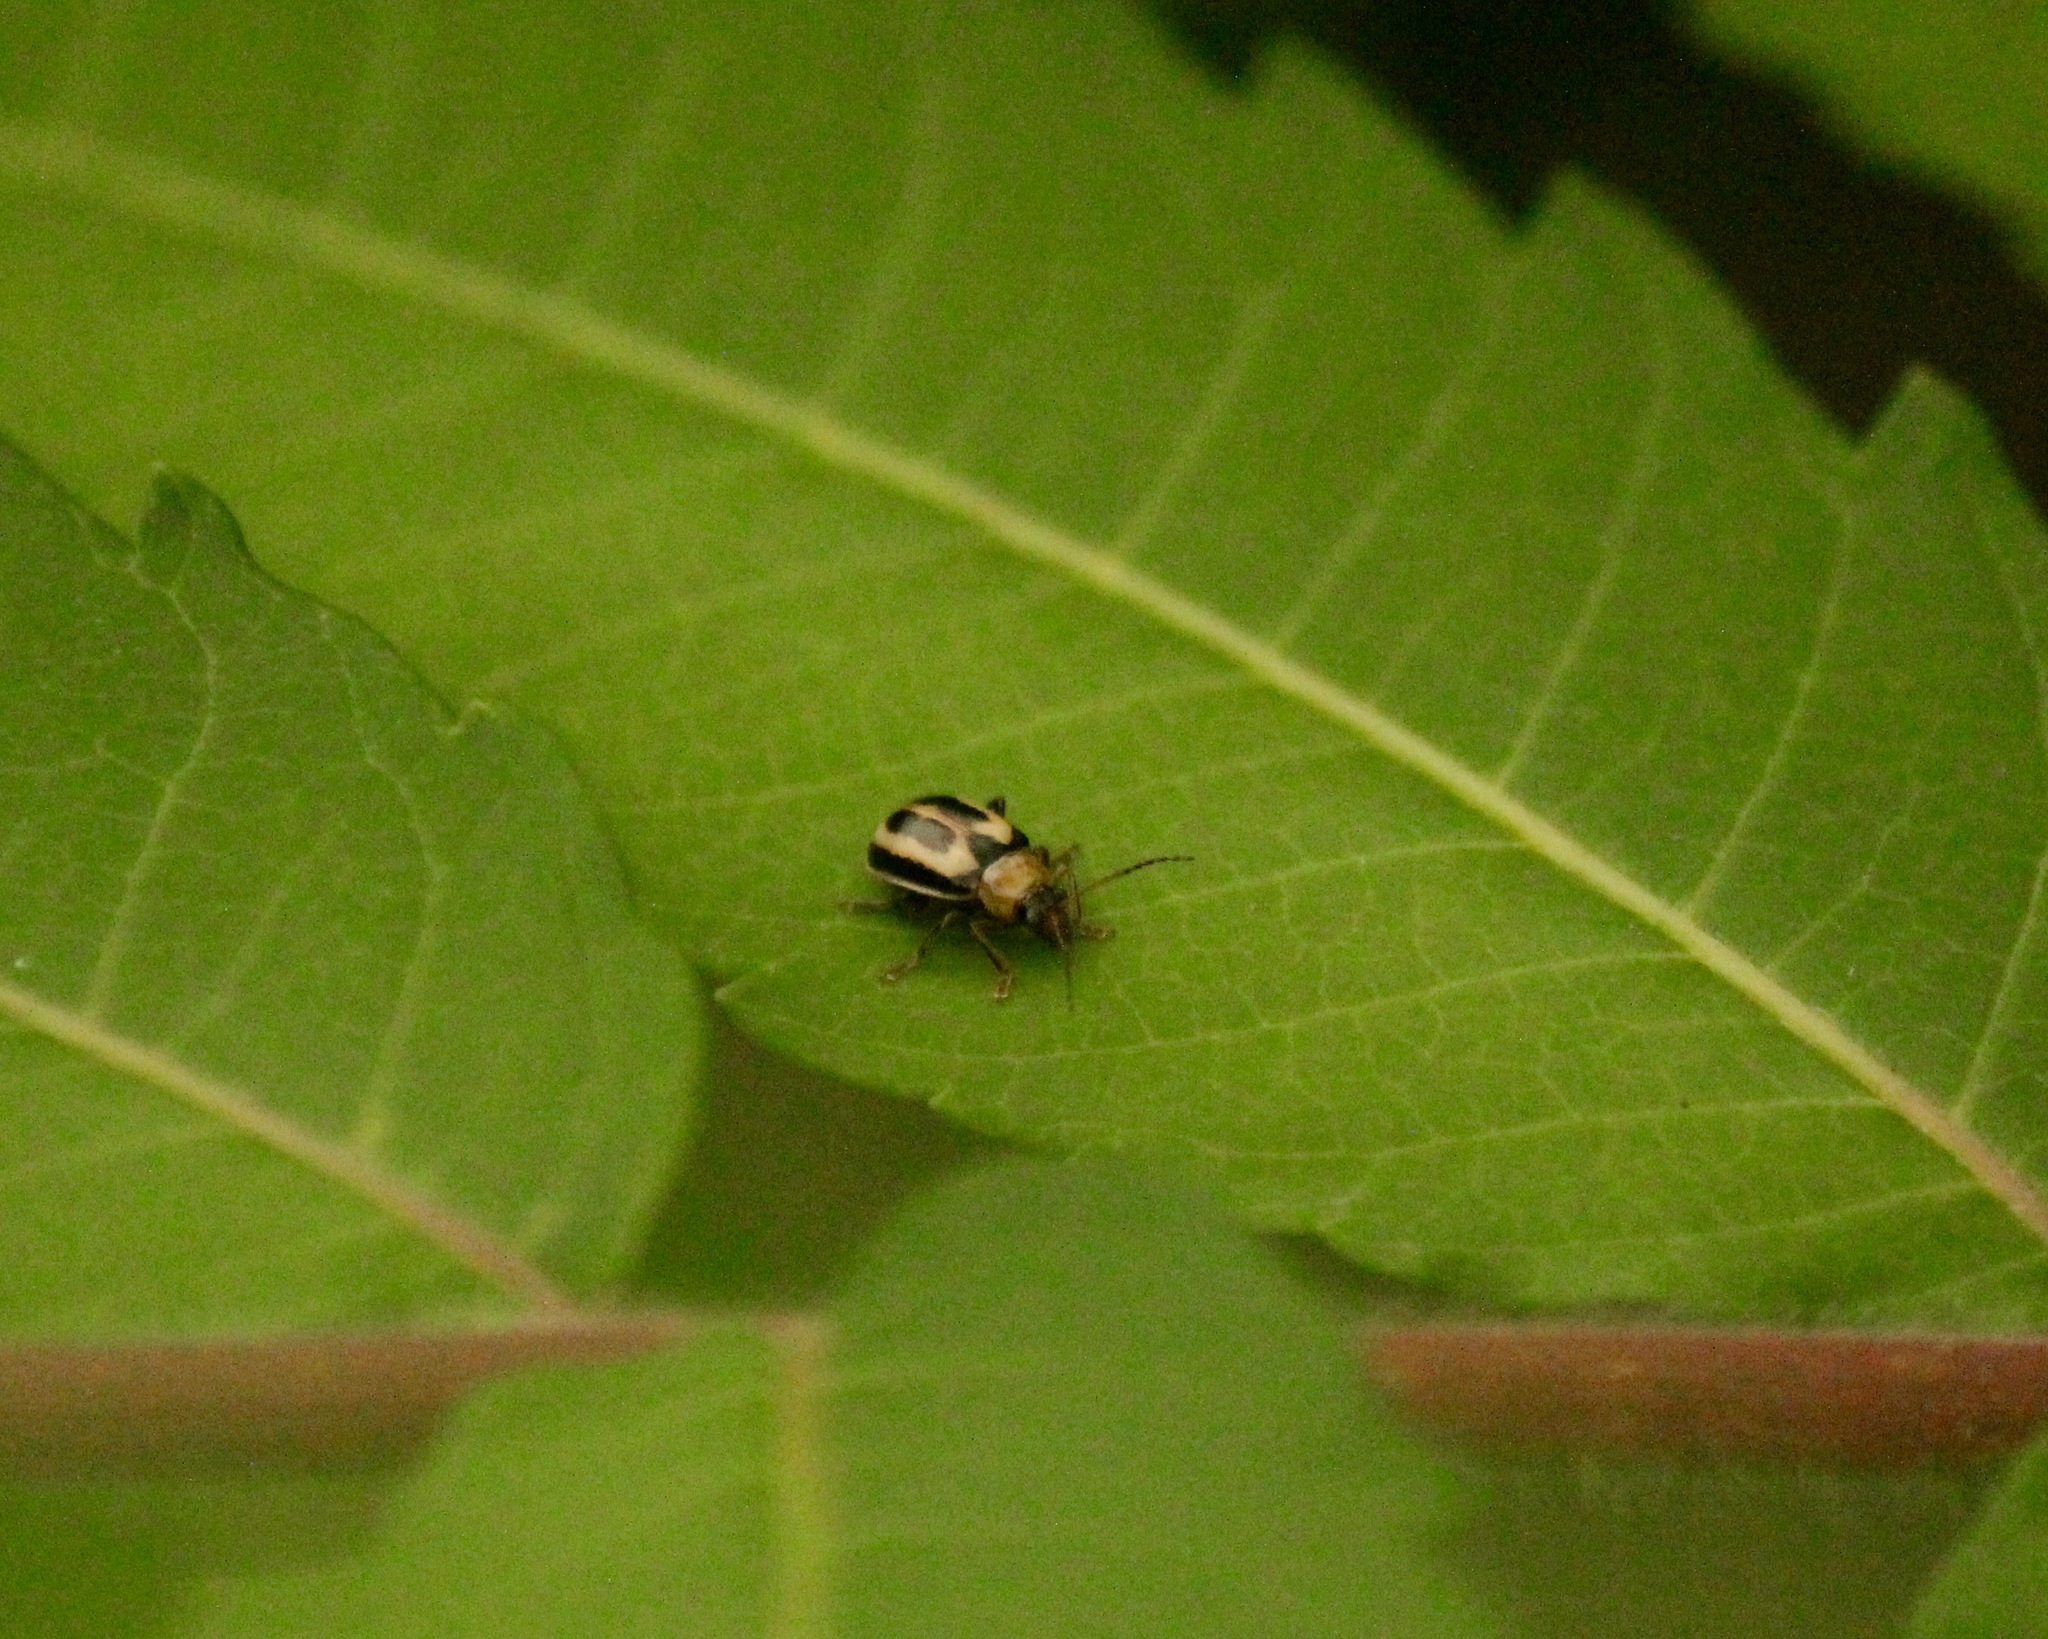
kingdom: Animalia
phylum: Arthropoda
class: Insecta
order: Coleoptera
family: Chrysomelidae
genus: Cerotoma
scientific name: Cerotoma trifurcata
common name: Bean leaf beetle
